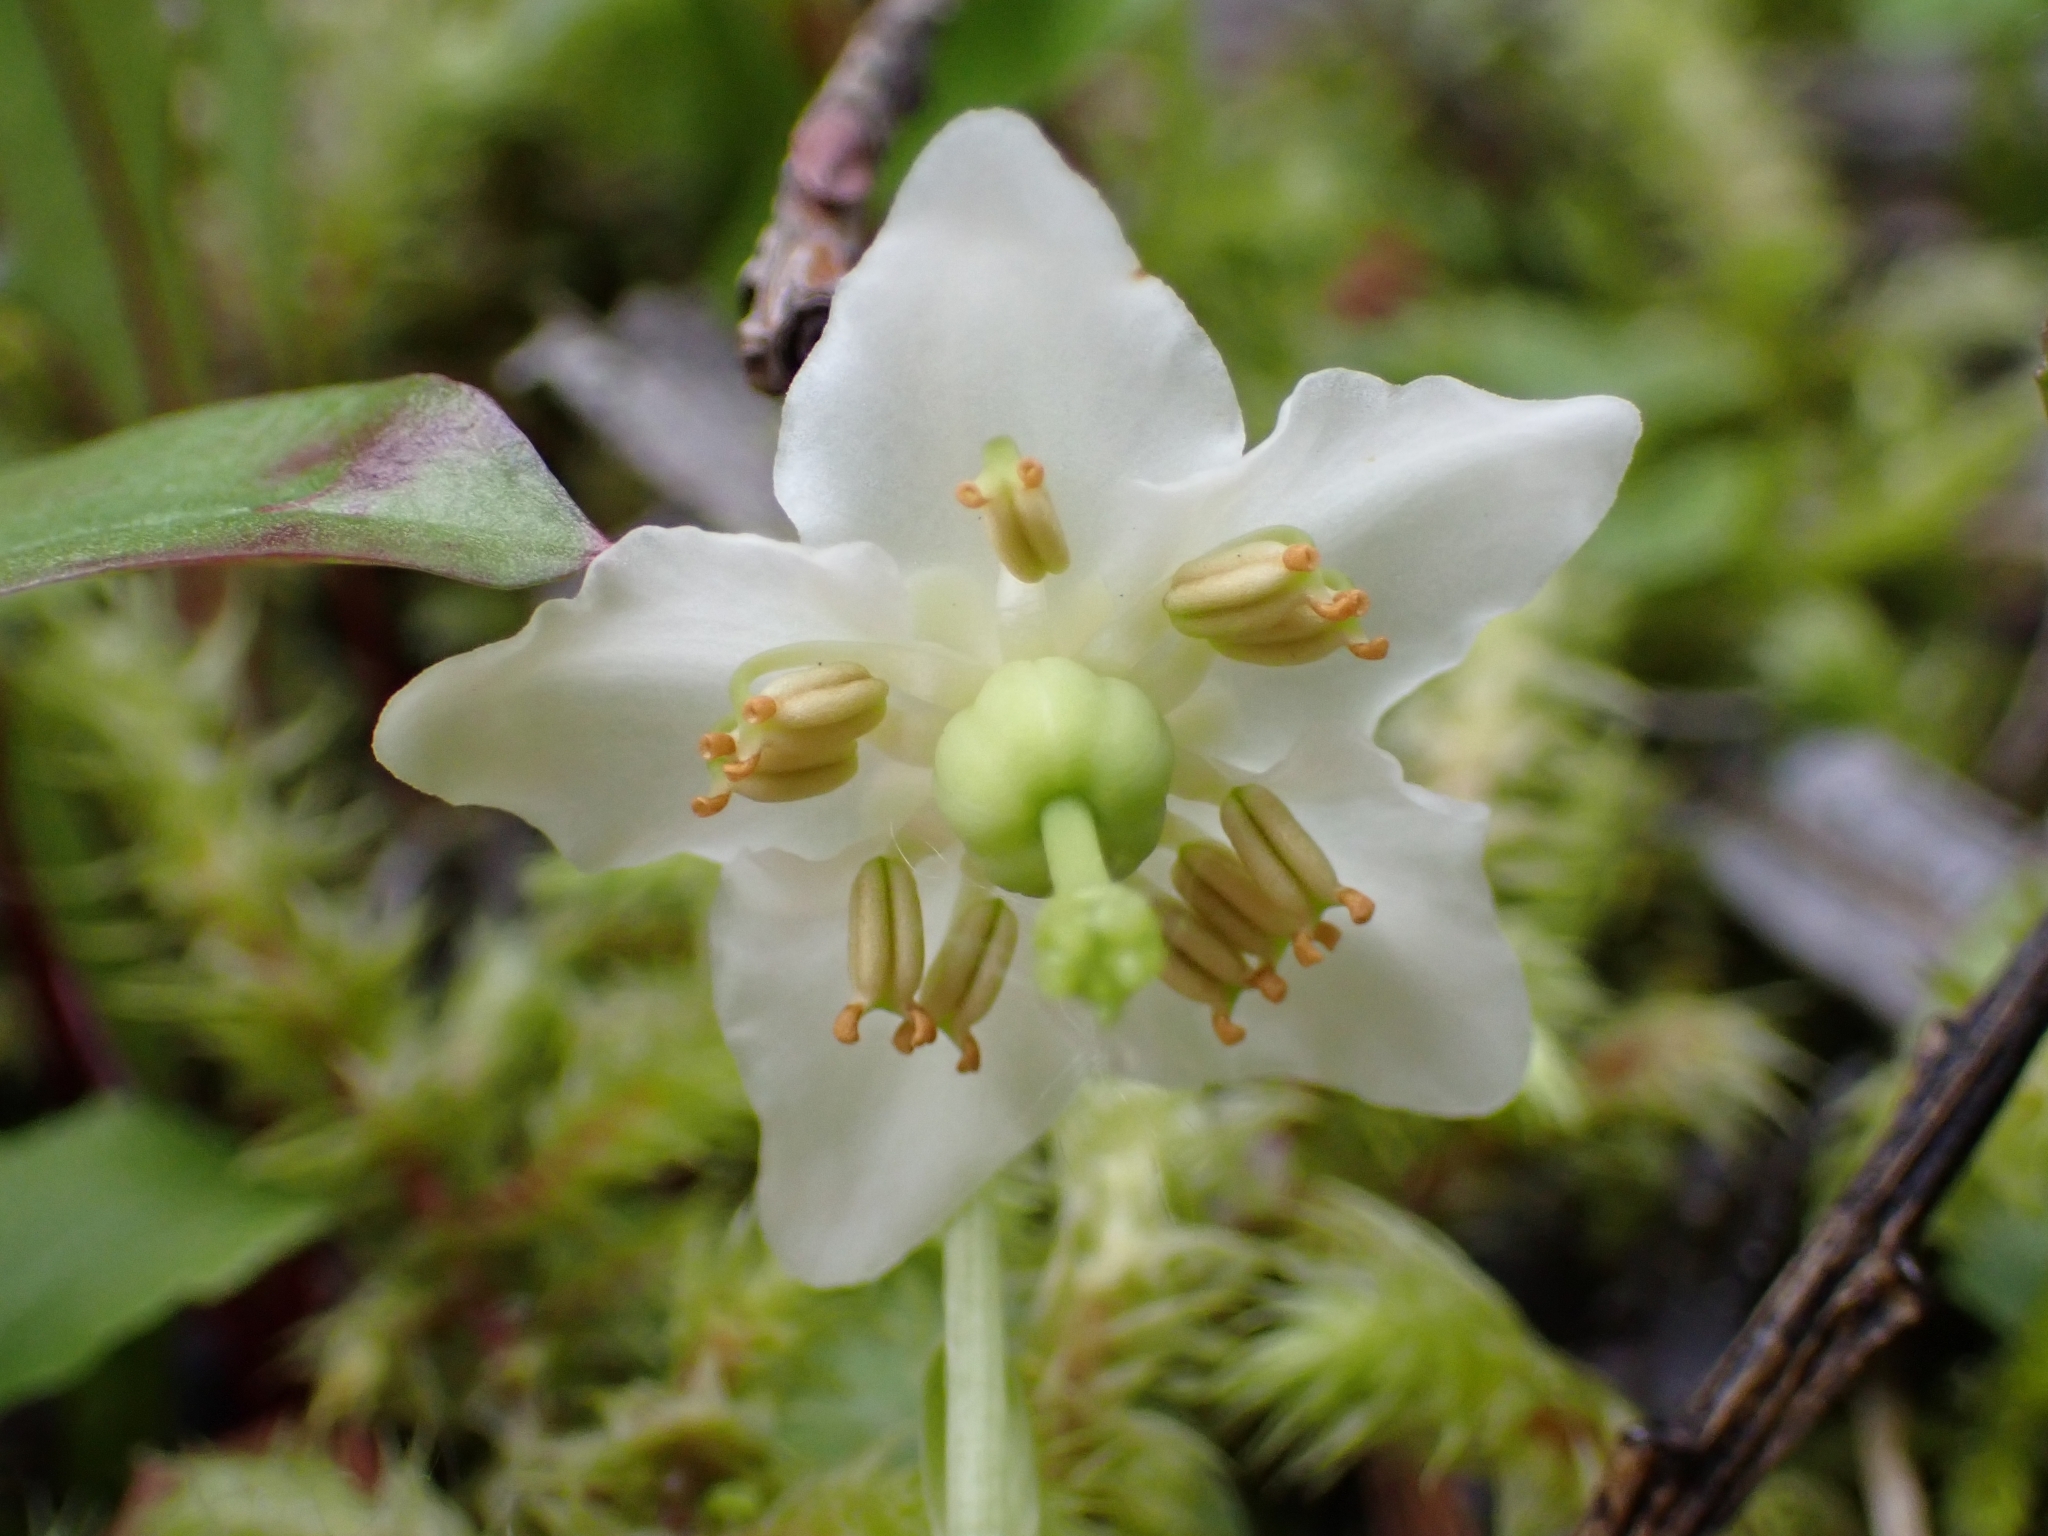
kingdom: Plantae
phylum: Tracheophyta
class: Magnoliopsida
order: Ericales
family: Ericaceae
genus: Moneses
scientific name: Moneses uniflora
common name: One-flowered wintergreen
